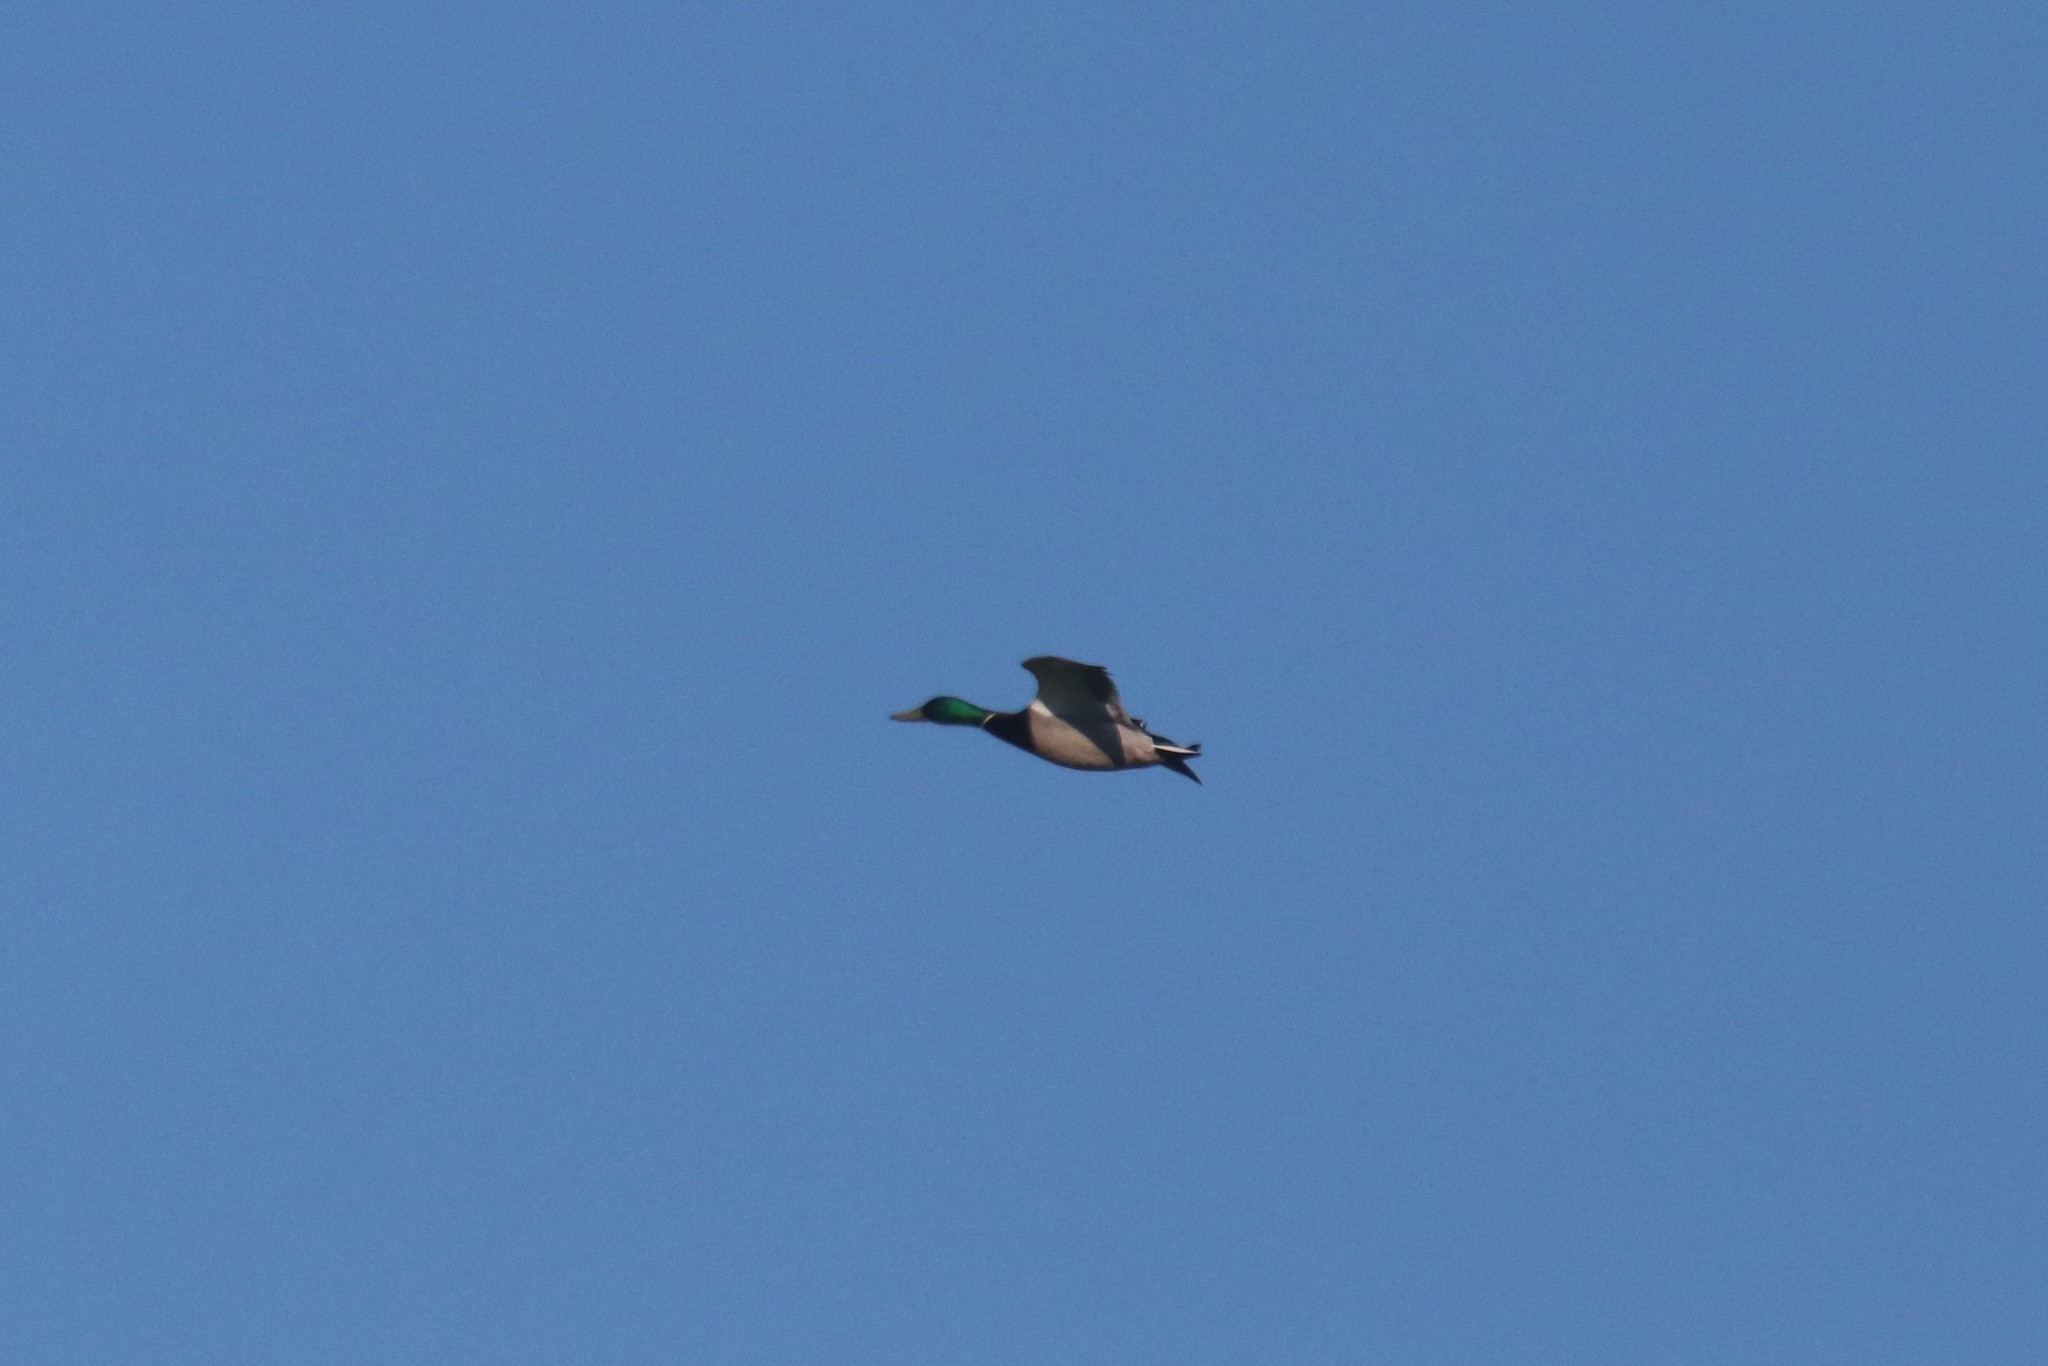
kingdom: Animalia
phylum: Chordata
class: Aves
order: Anseriformes
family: Anatidae
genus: Anas
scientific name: Anas platyrhynchos
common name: Mallard
